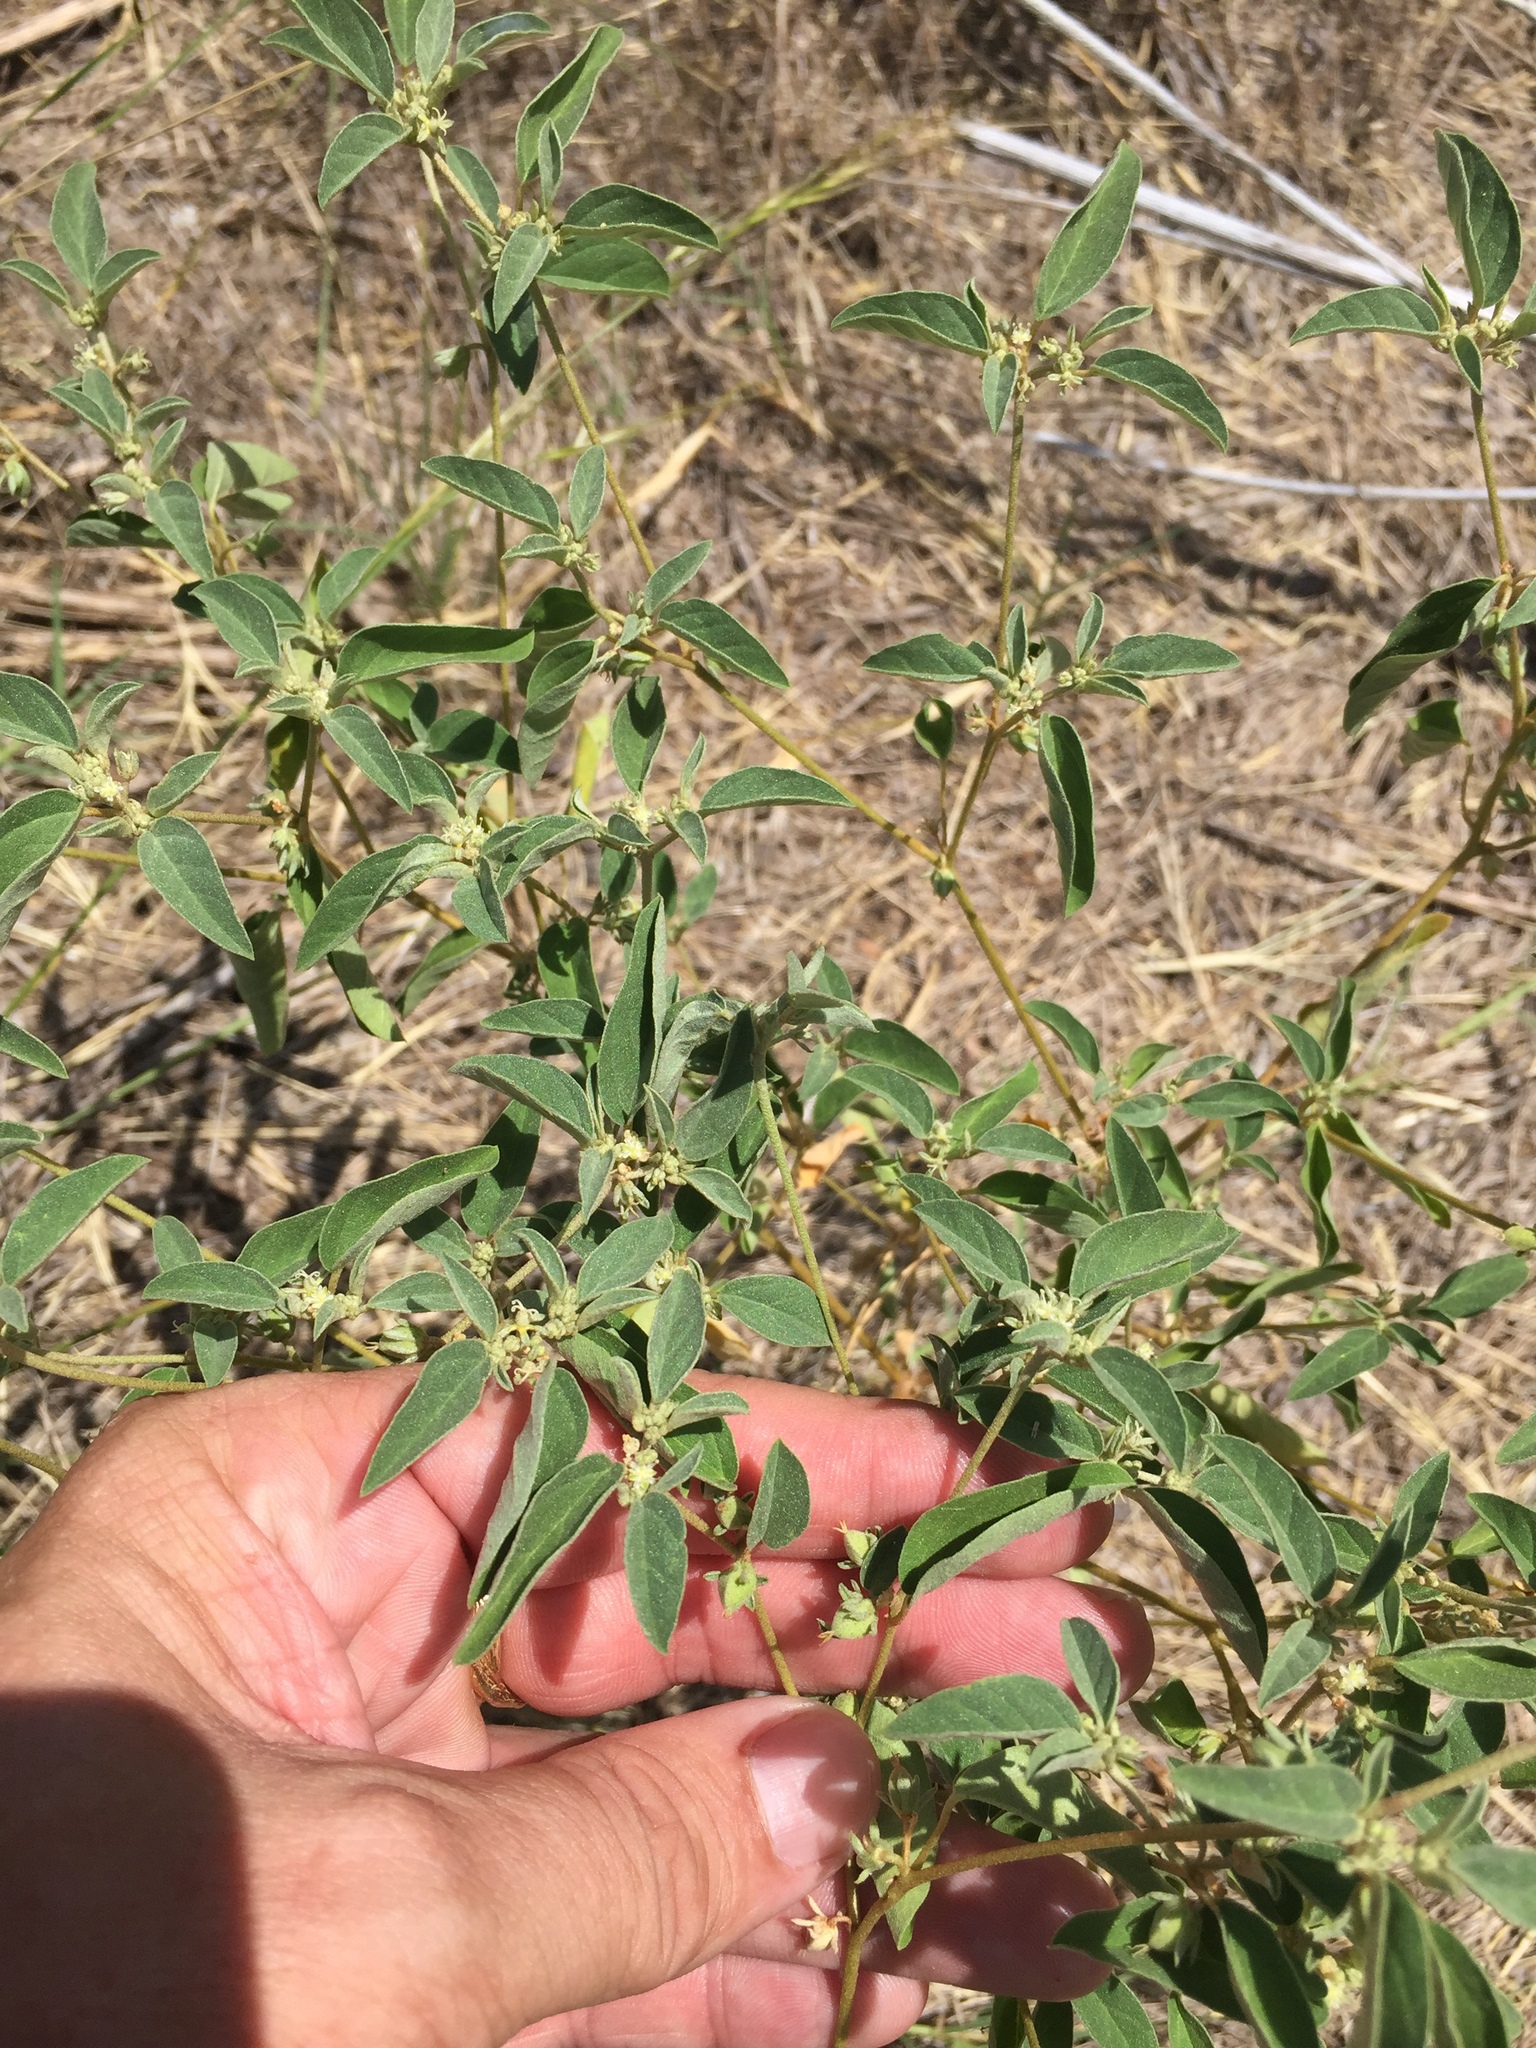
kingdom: Plantae
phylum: Tracheophyta
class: Magnoliopsida
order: Malpighiales
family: Euphorbiaceae
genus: Croton
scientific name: Croton monanthogynus
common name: One-seed croton
